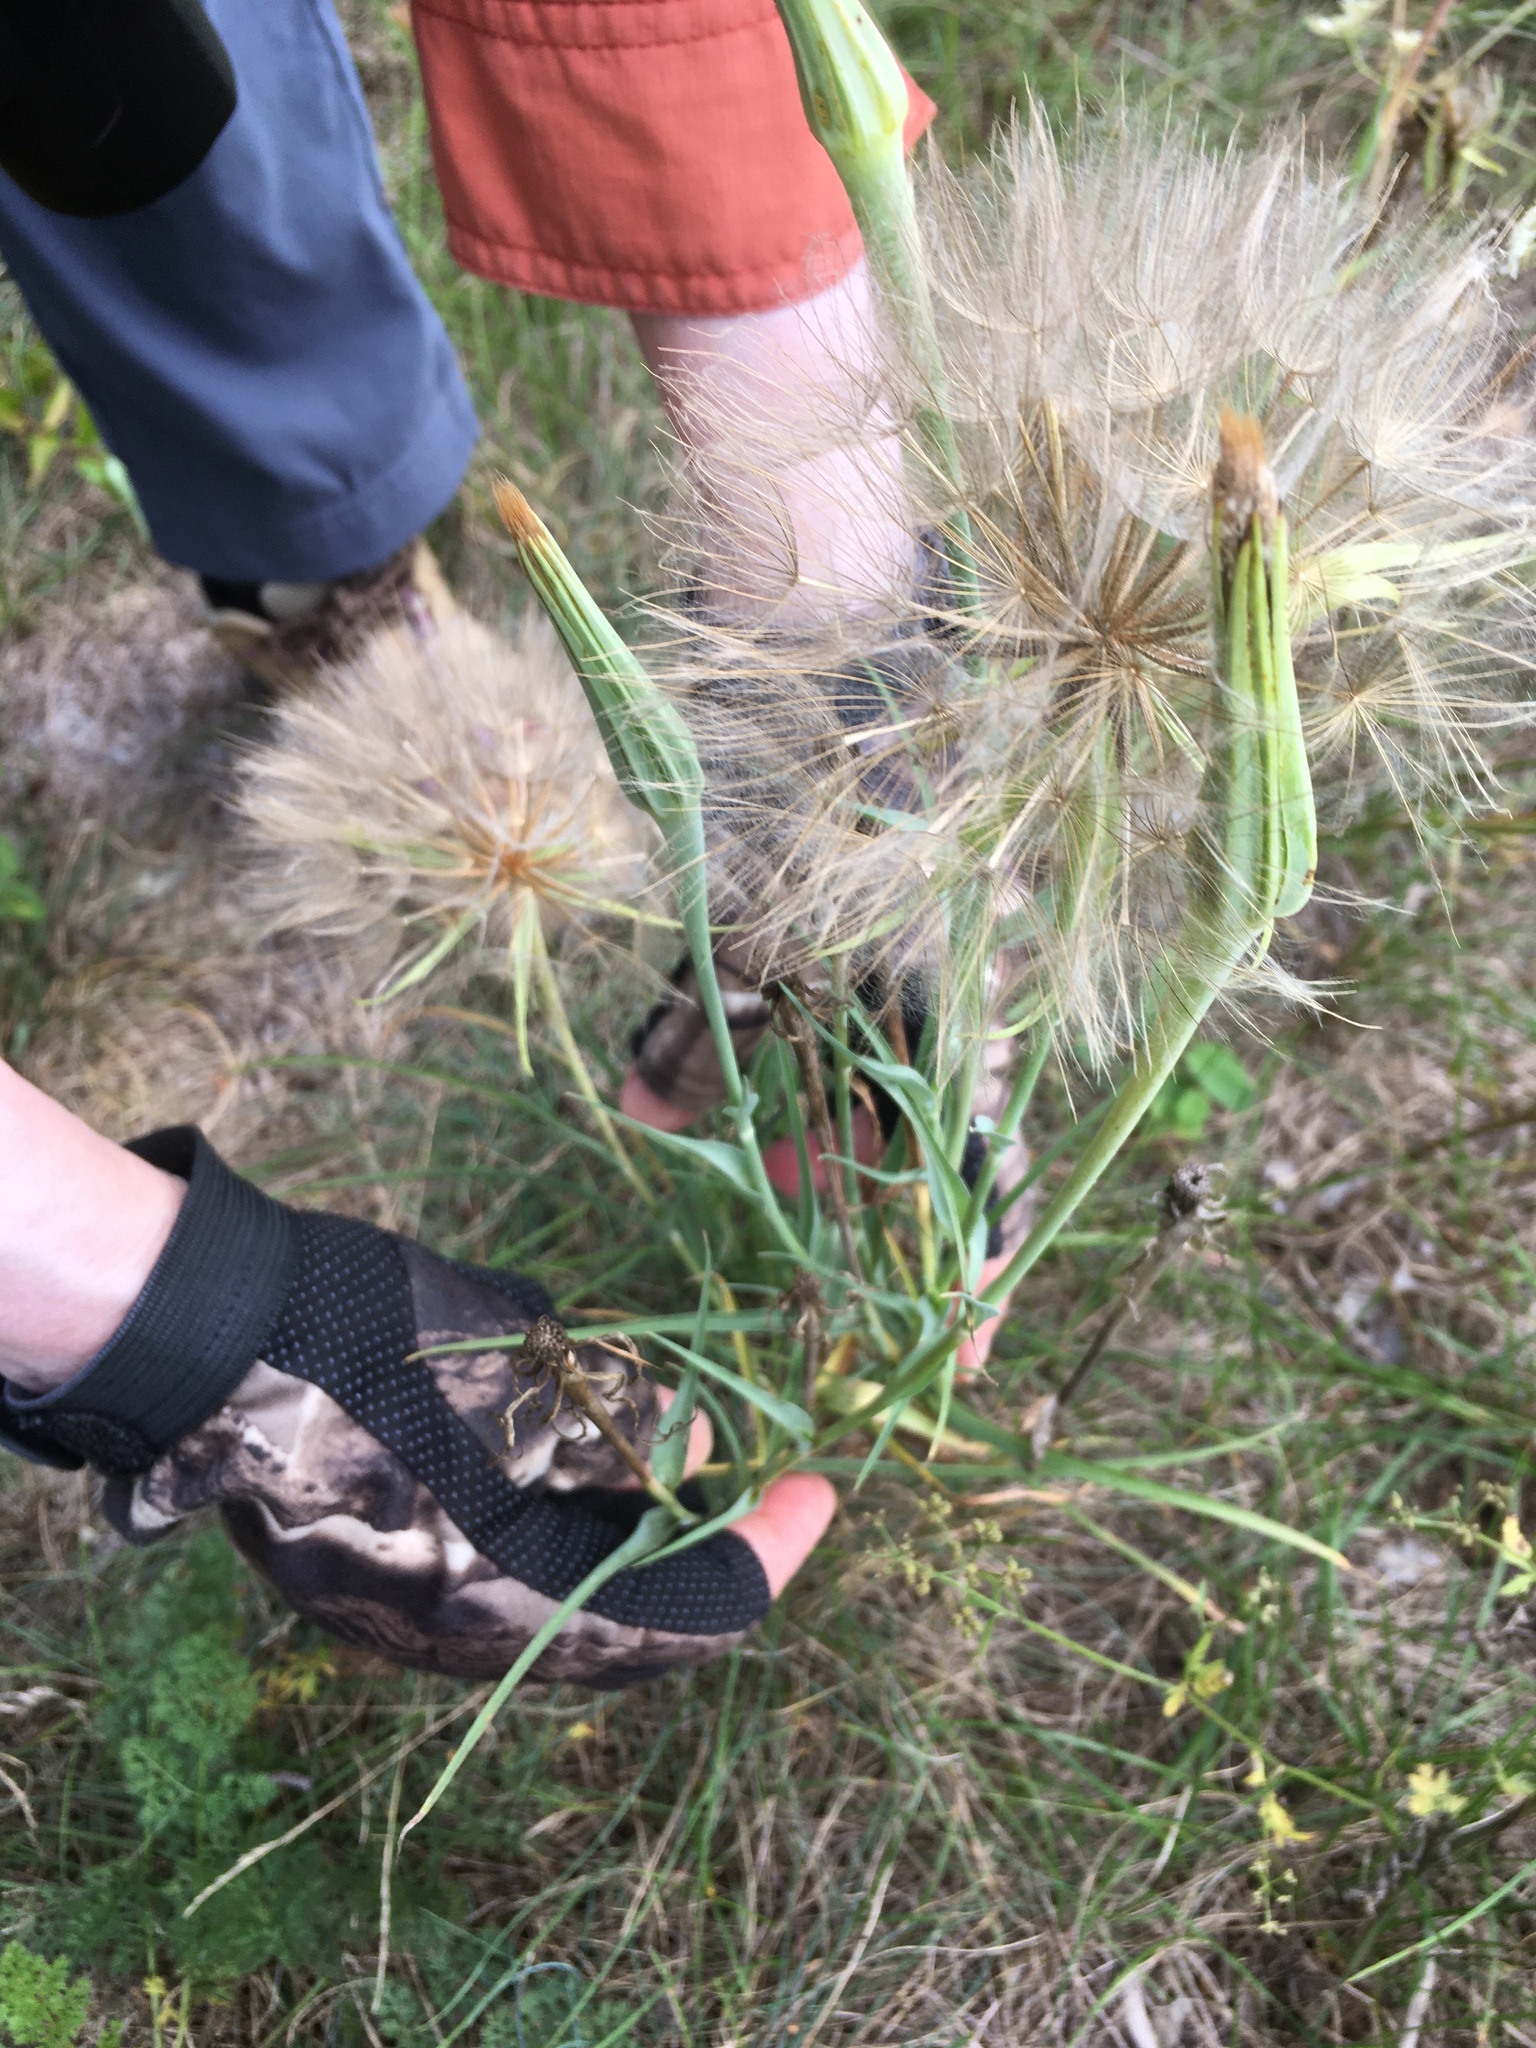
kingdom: Plantae
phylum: Tracheophyta
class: Magnoliopsida
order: Asterales
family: Asteraceae
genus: Tragopogon
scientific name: Tragopogon dubius
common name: Yellow salsify
